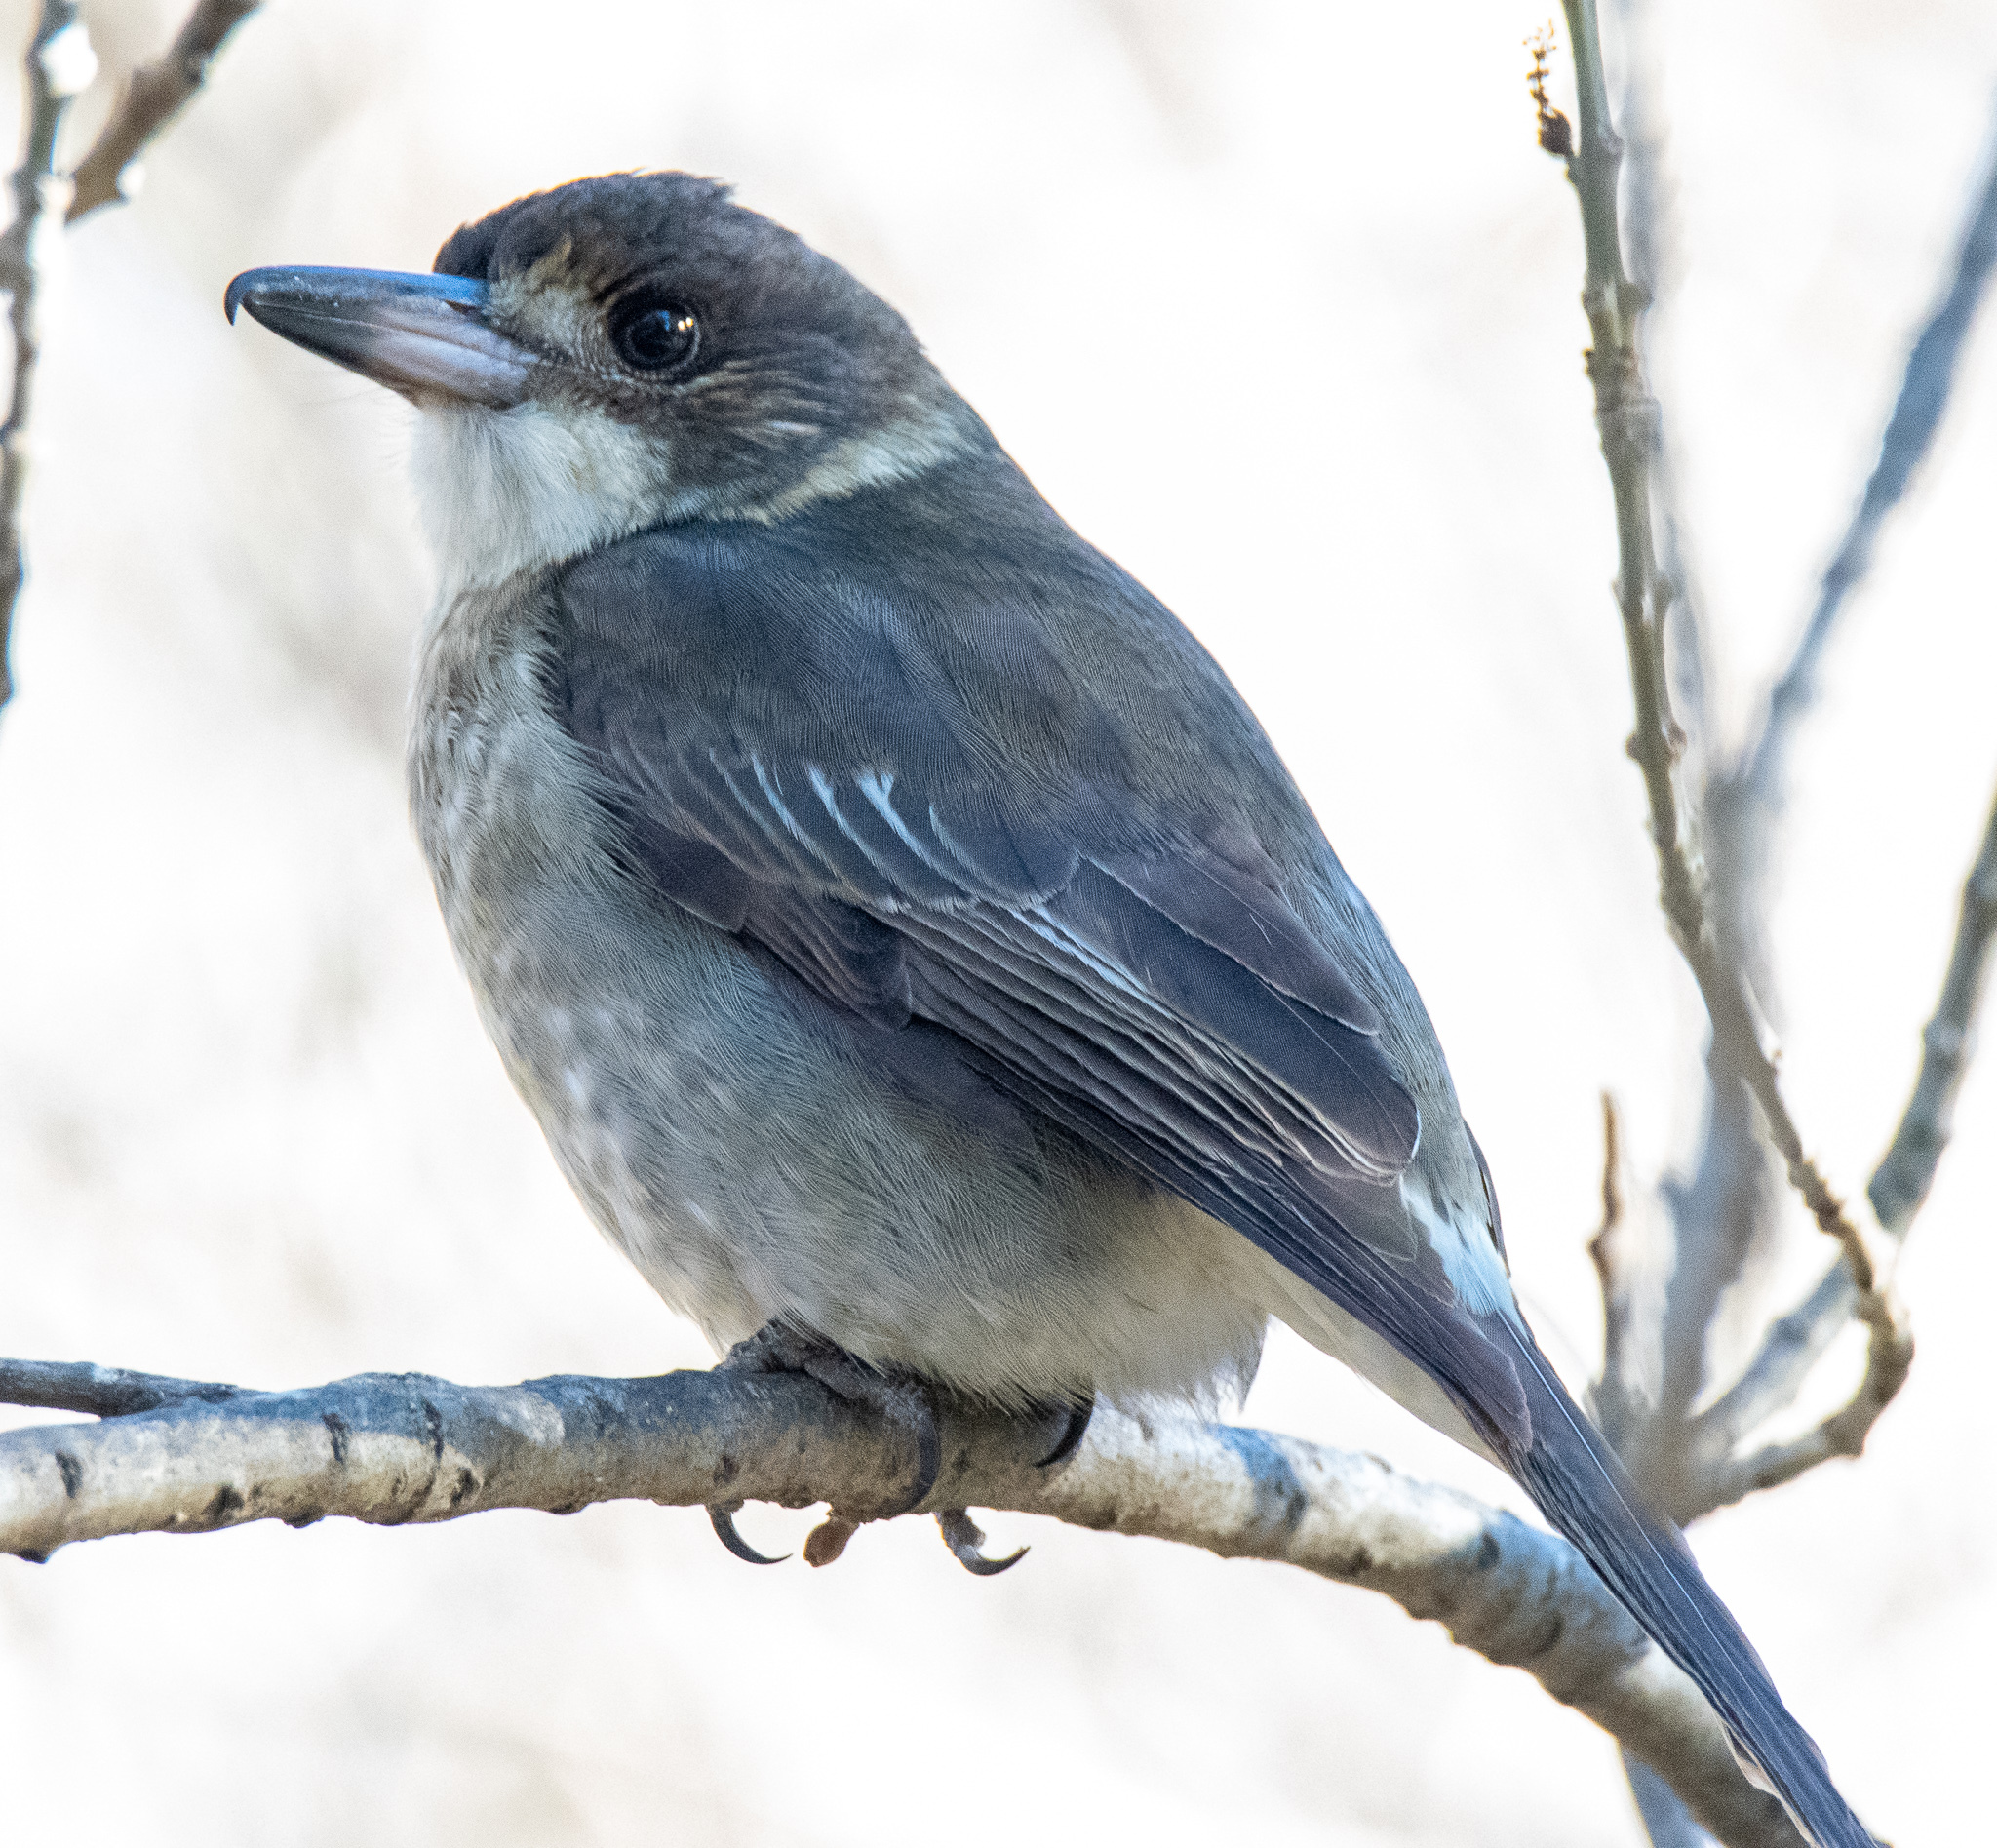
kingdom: Animalia
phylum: Chordata
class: Aves
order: Passeriformes
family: Cracticidae
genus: Cracticus
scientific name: Cracticus torquatus
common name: Grey butcherbird
